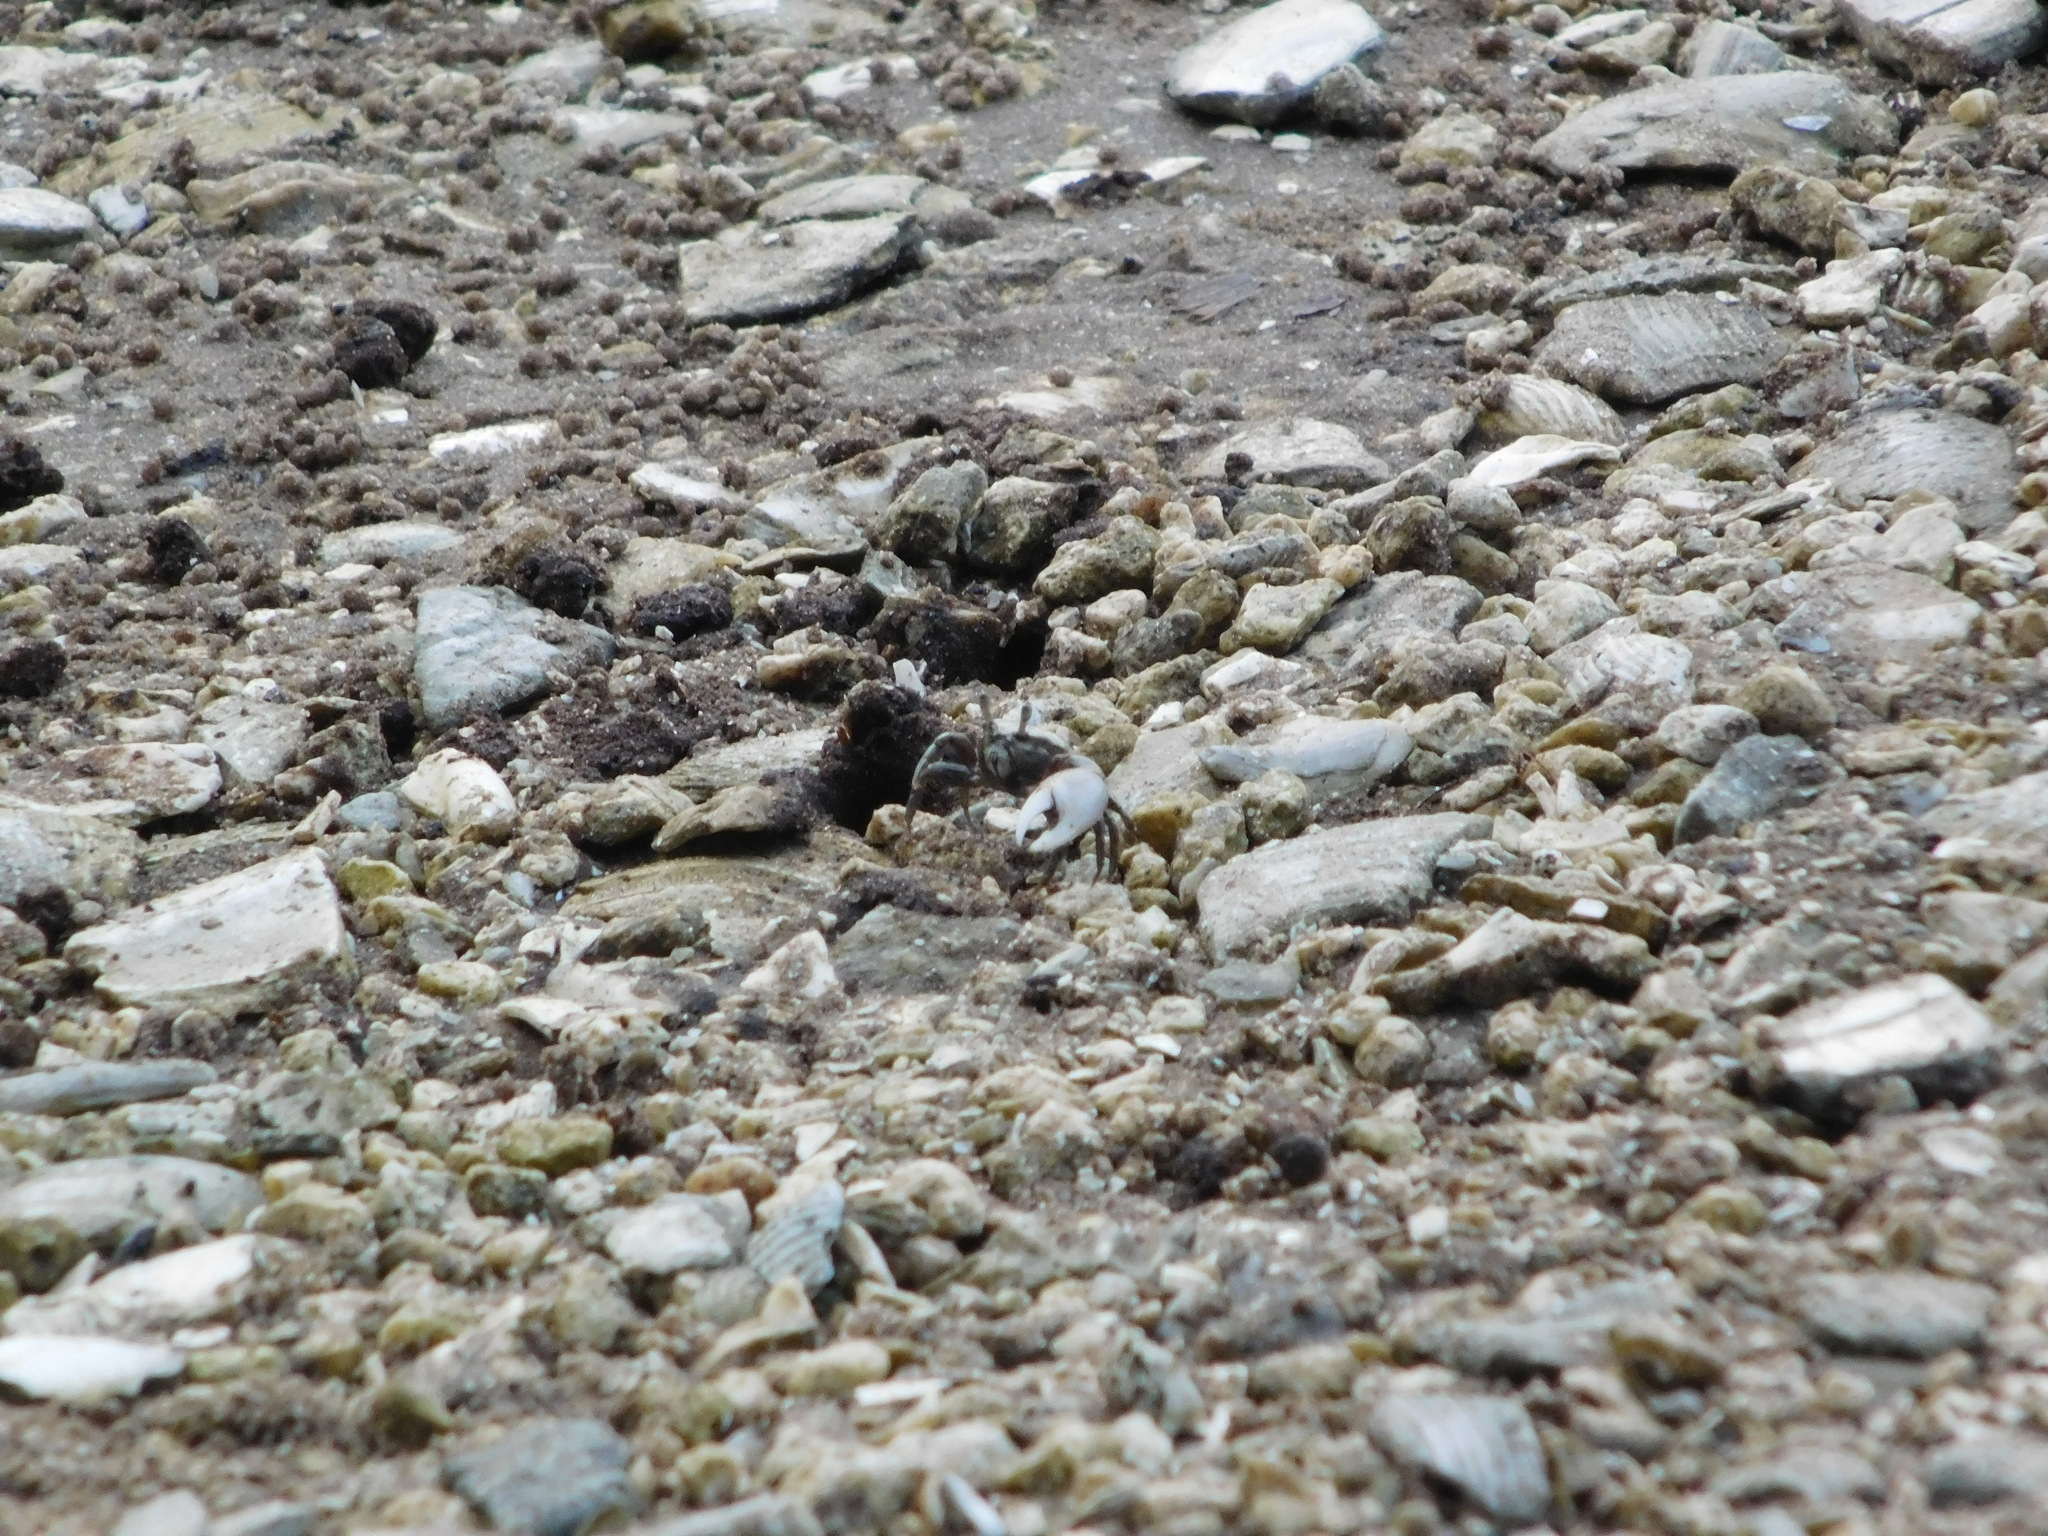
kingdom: Animalia
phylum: Arthropoda
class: Malacostraca
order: Decapoda
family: Ocypodidae
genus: Leptuca
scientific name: Leptuca pugilator
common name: Atlantic sand fiddler crab
